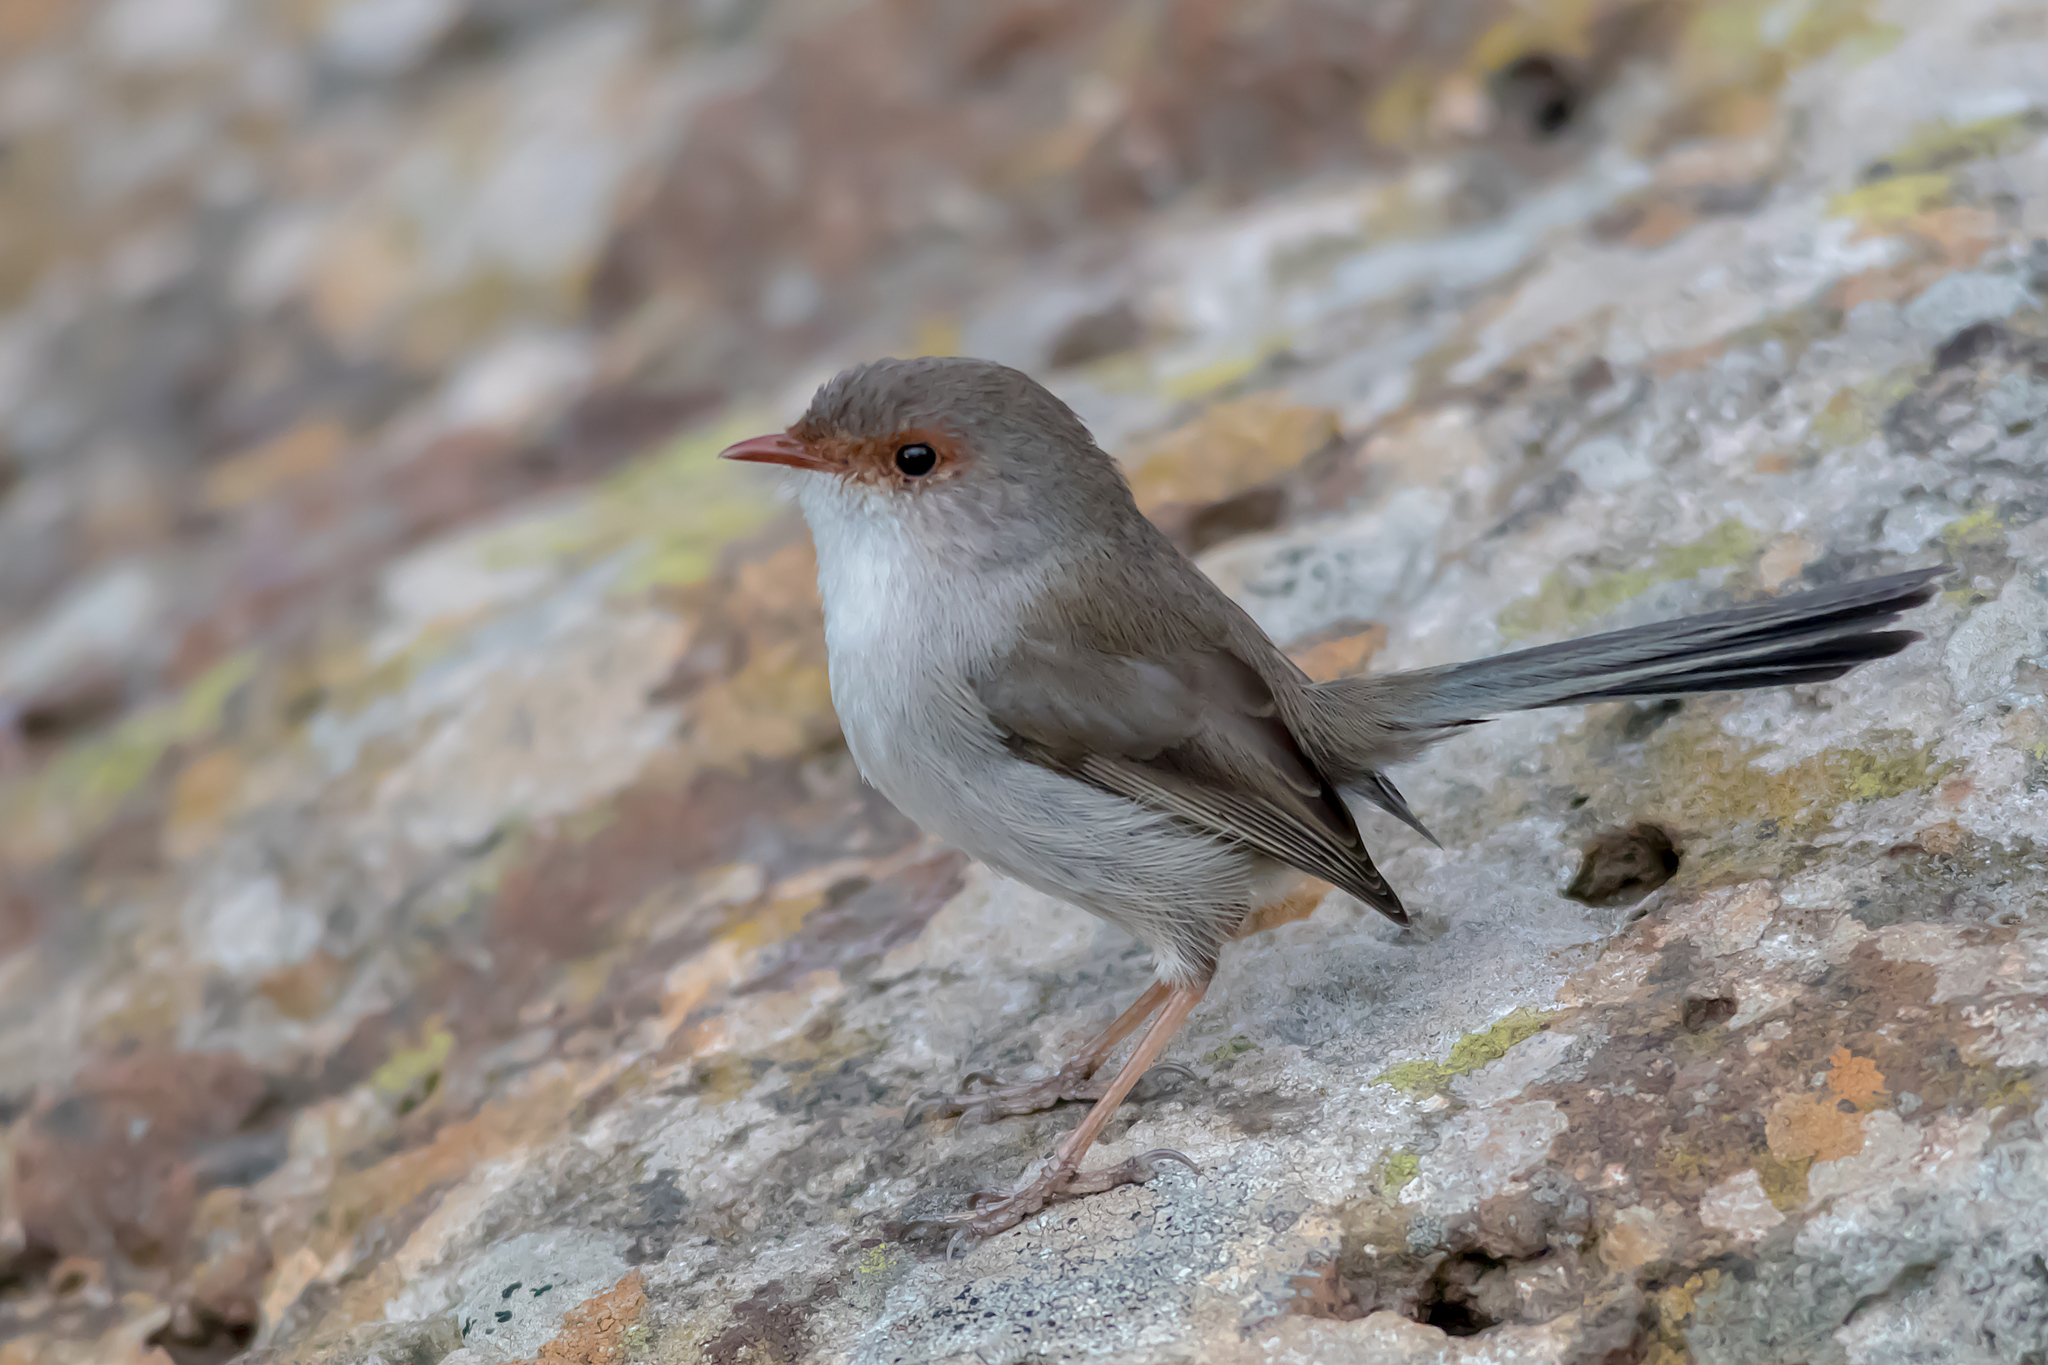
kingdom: Animalia
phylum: Chordata
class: Aves
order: Passeriformes
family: Maluridae
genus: Malurus
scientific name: Malurus cyaneus
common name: Superb fairywren
